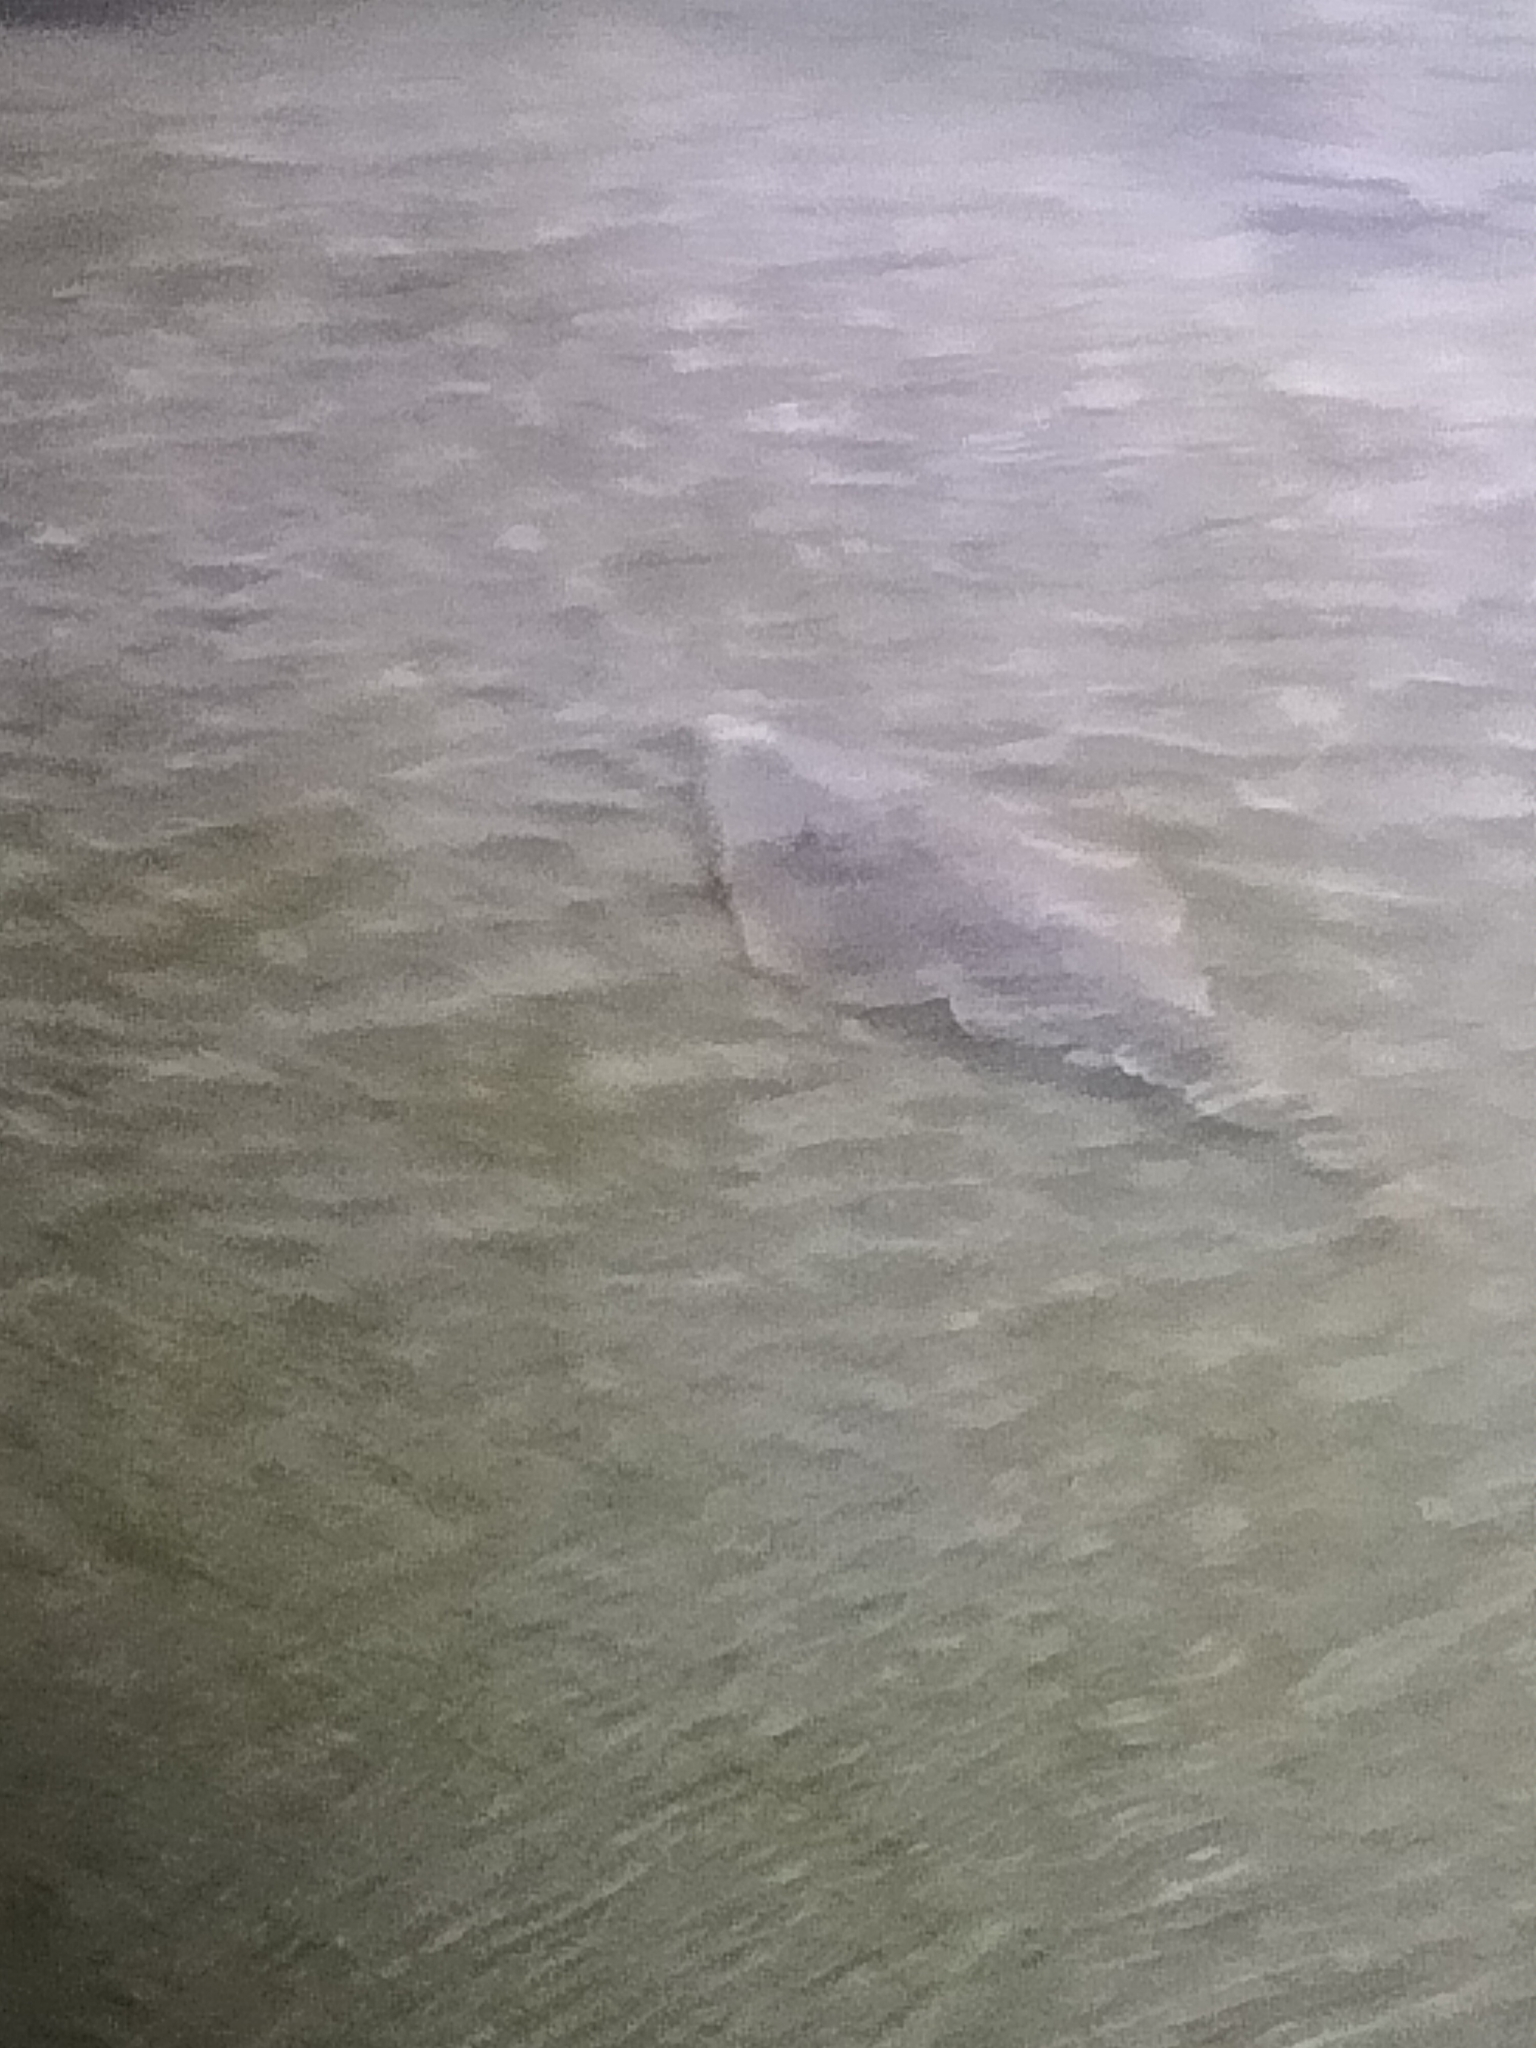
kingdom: Animalia
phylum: Chordata
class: Elasmobranchii
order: Rhinopristiformes
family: Glaucostegidae
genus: Glaucostegus
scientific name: Glaucostegus typus
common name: Giant shovelnose ray
